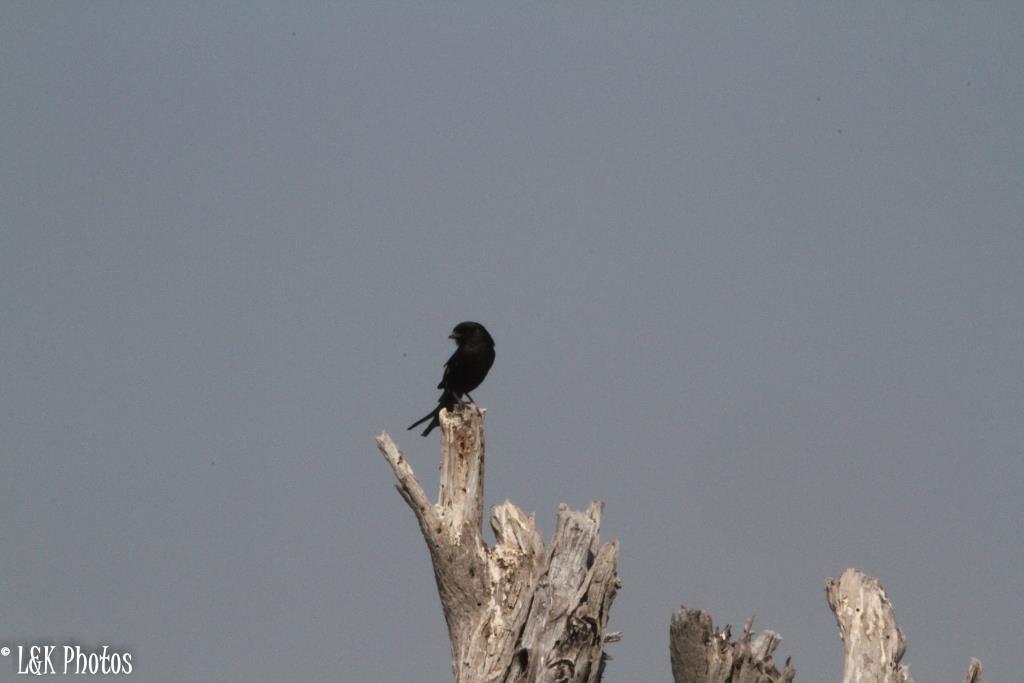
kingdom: Animalia
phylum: Chordata
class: Aves
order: Passeriformes
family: Dicruridae
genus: Dicrurus
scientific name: Dicrurus adsimilis
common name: Fork-tailed drongo
